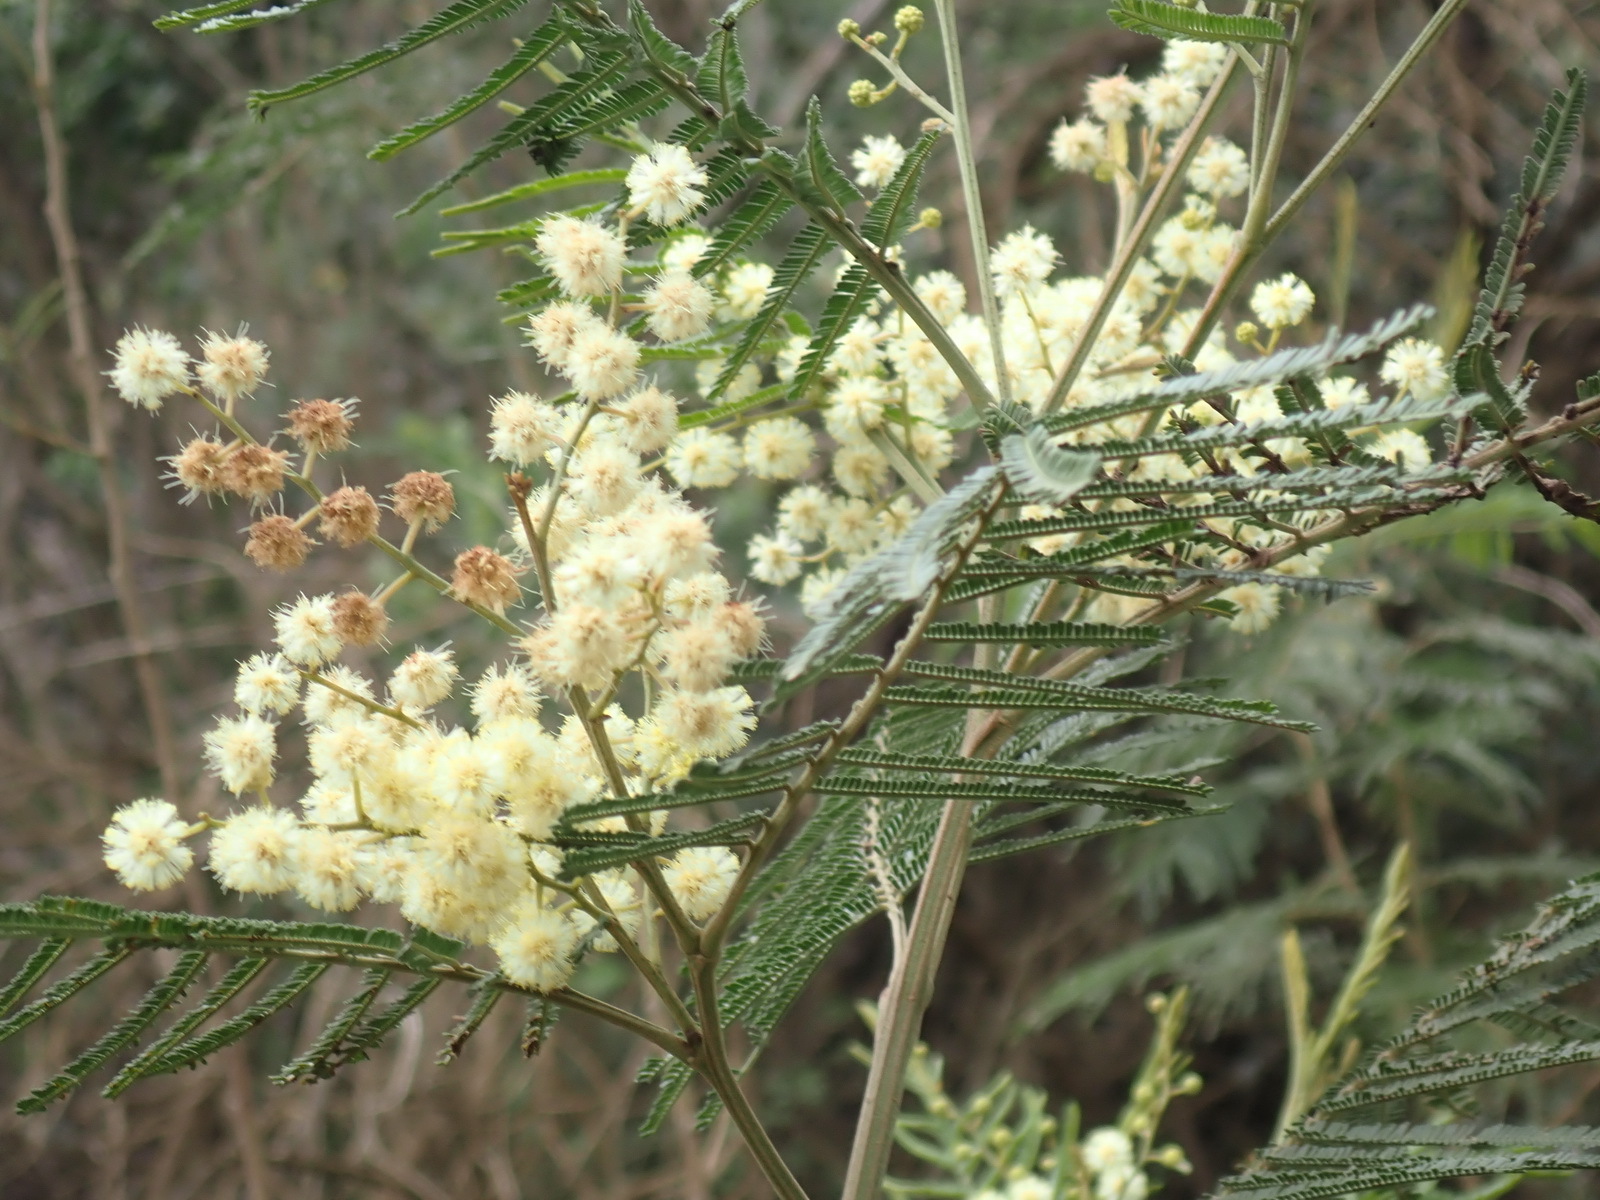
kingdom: Plantae
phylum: Tracheophyta
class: Magnoliopsida
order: Fabales
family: Fabaceae
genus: Acacia
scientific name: Acacia mearnsii
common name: Black wattle
